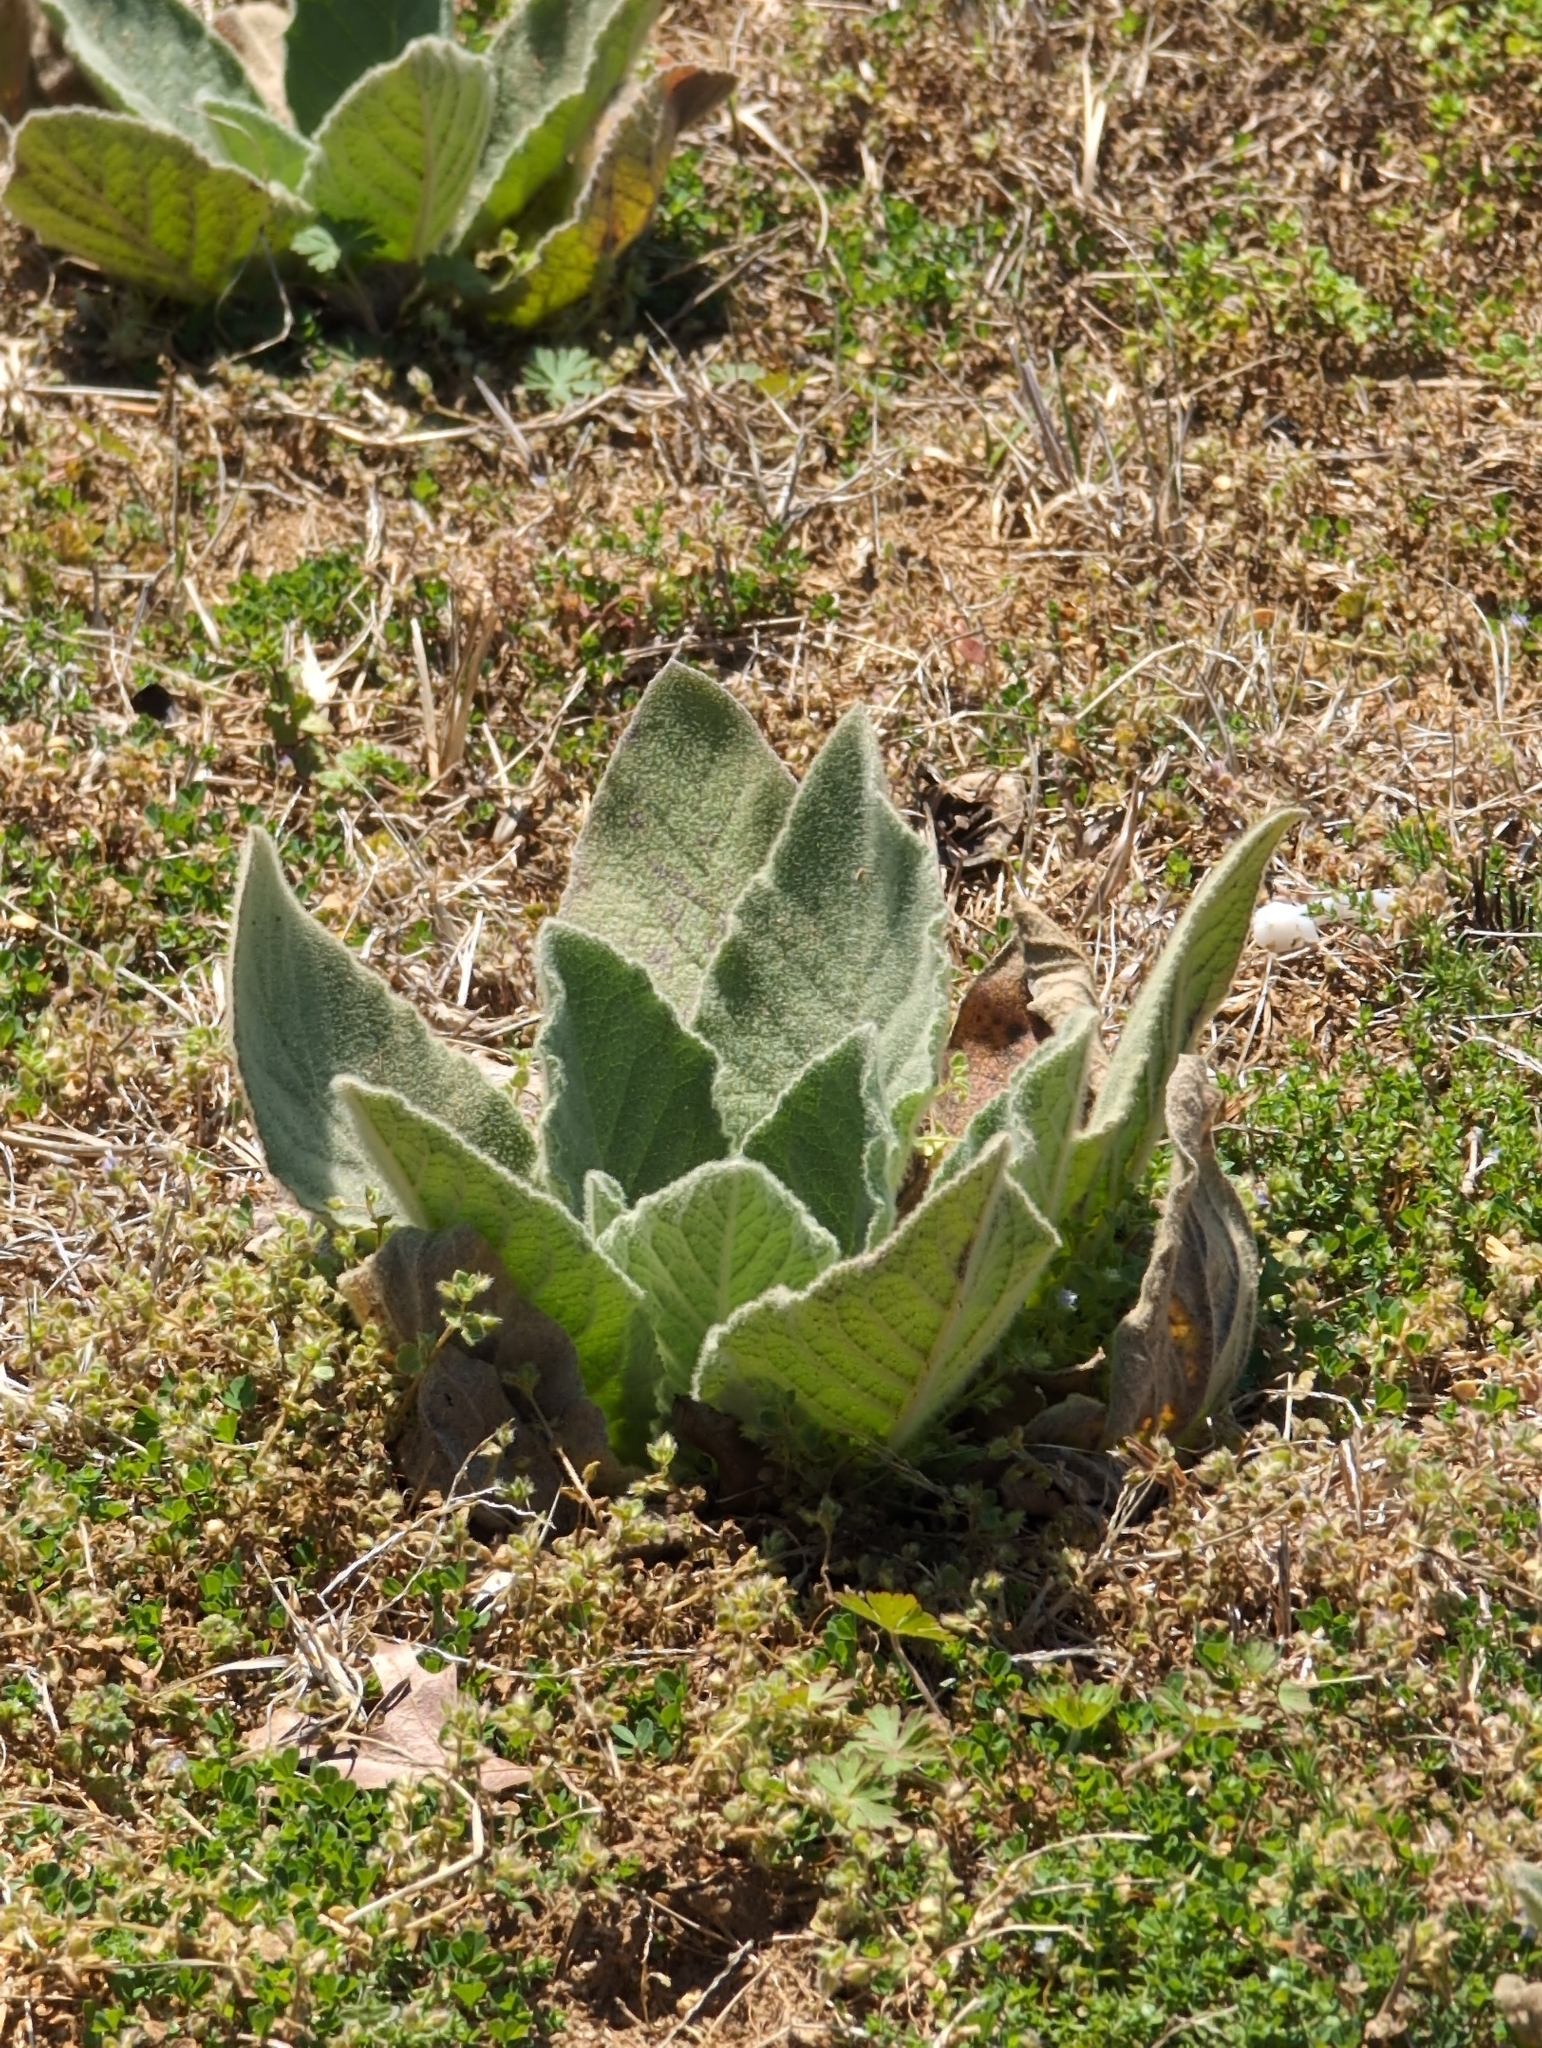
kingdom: Plantae
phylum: Tracheophyta
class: Magnoliopsida
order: Lamiales
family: Scrophulariaceae
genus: Verbascum
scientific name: Verbascum thapsus
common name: Common mullein
